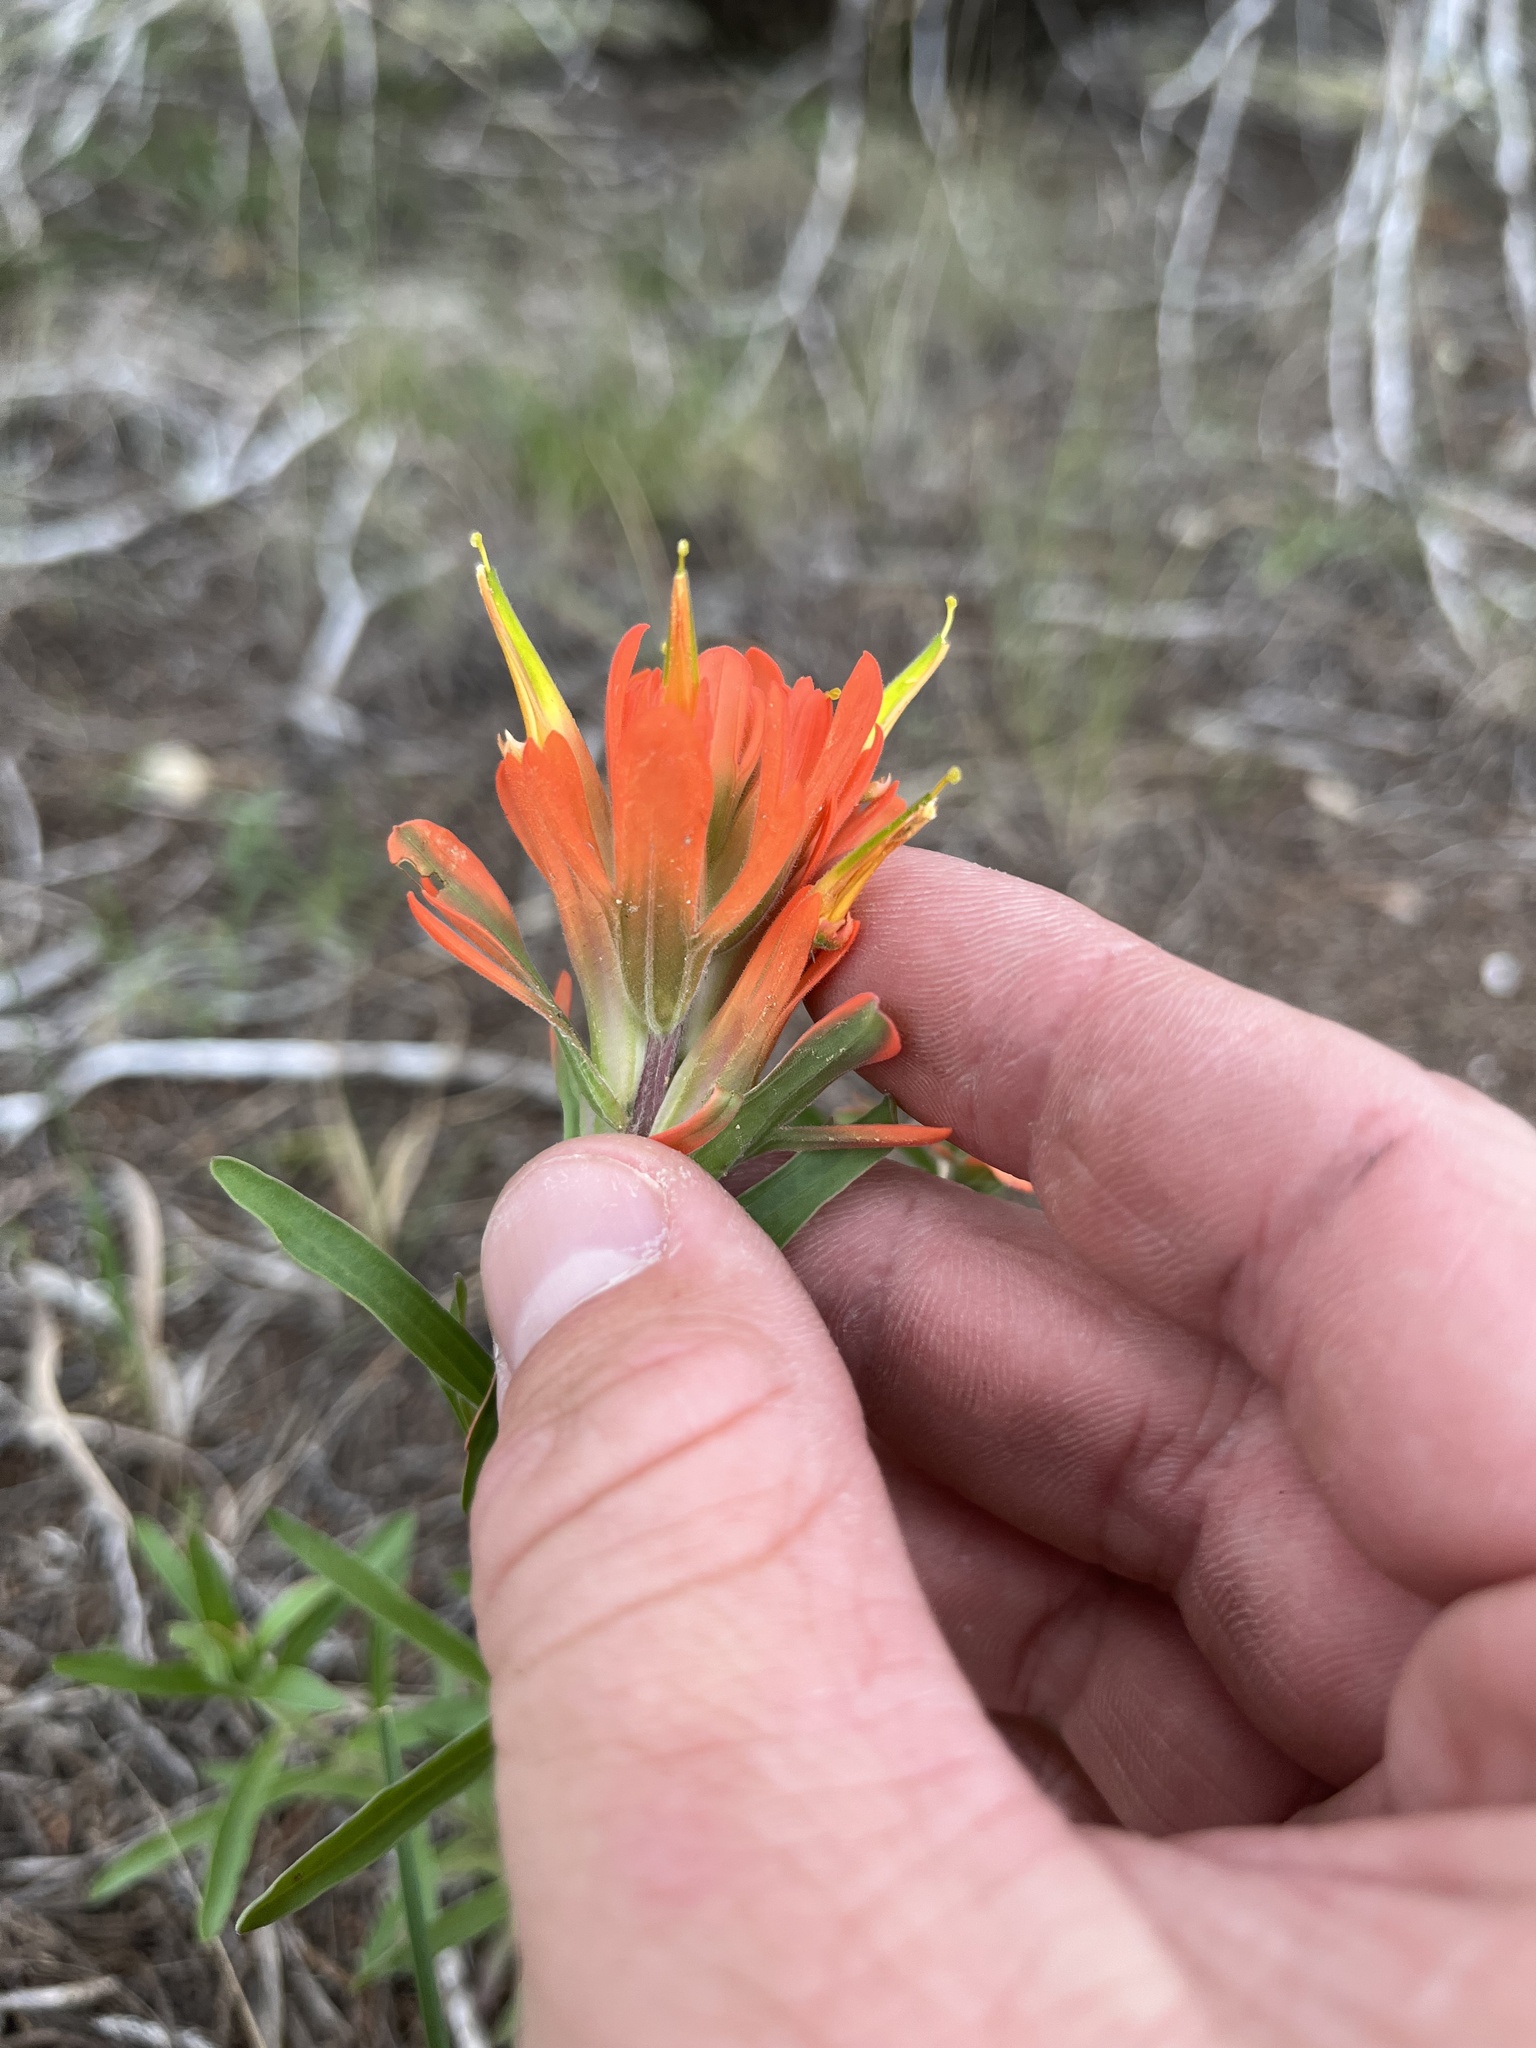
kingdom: Plantae
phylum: Tracheophyta
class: Magnoliopsida
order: Lamiales
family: Orobanchaceae
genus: Castilleja
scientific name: Castilleja lindheimeri
